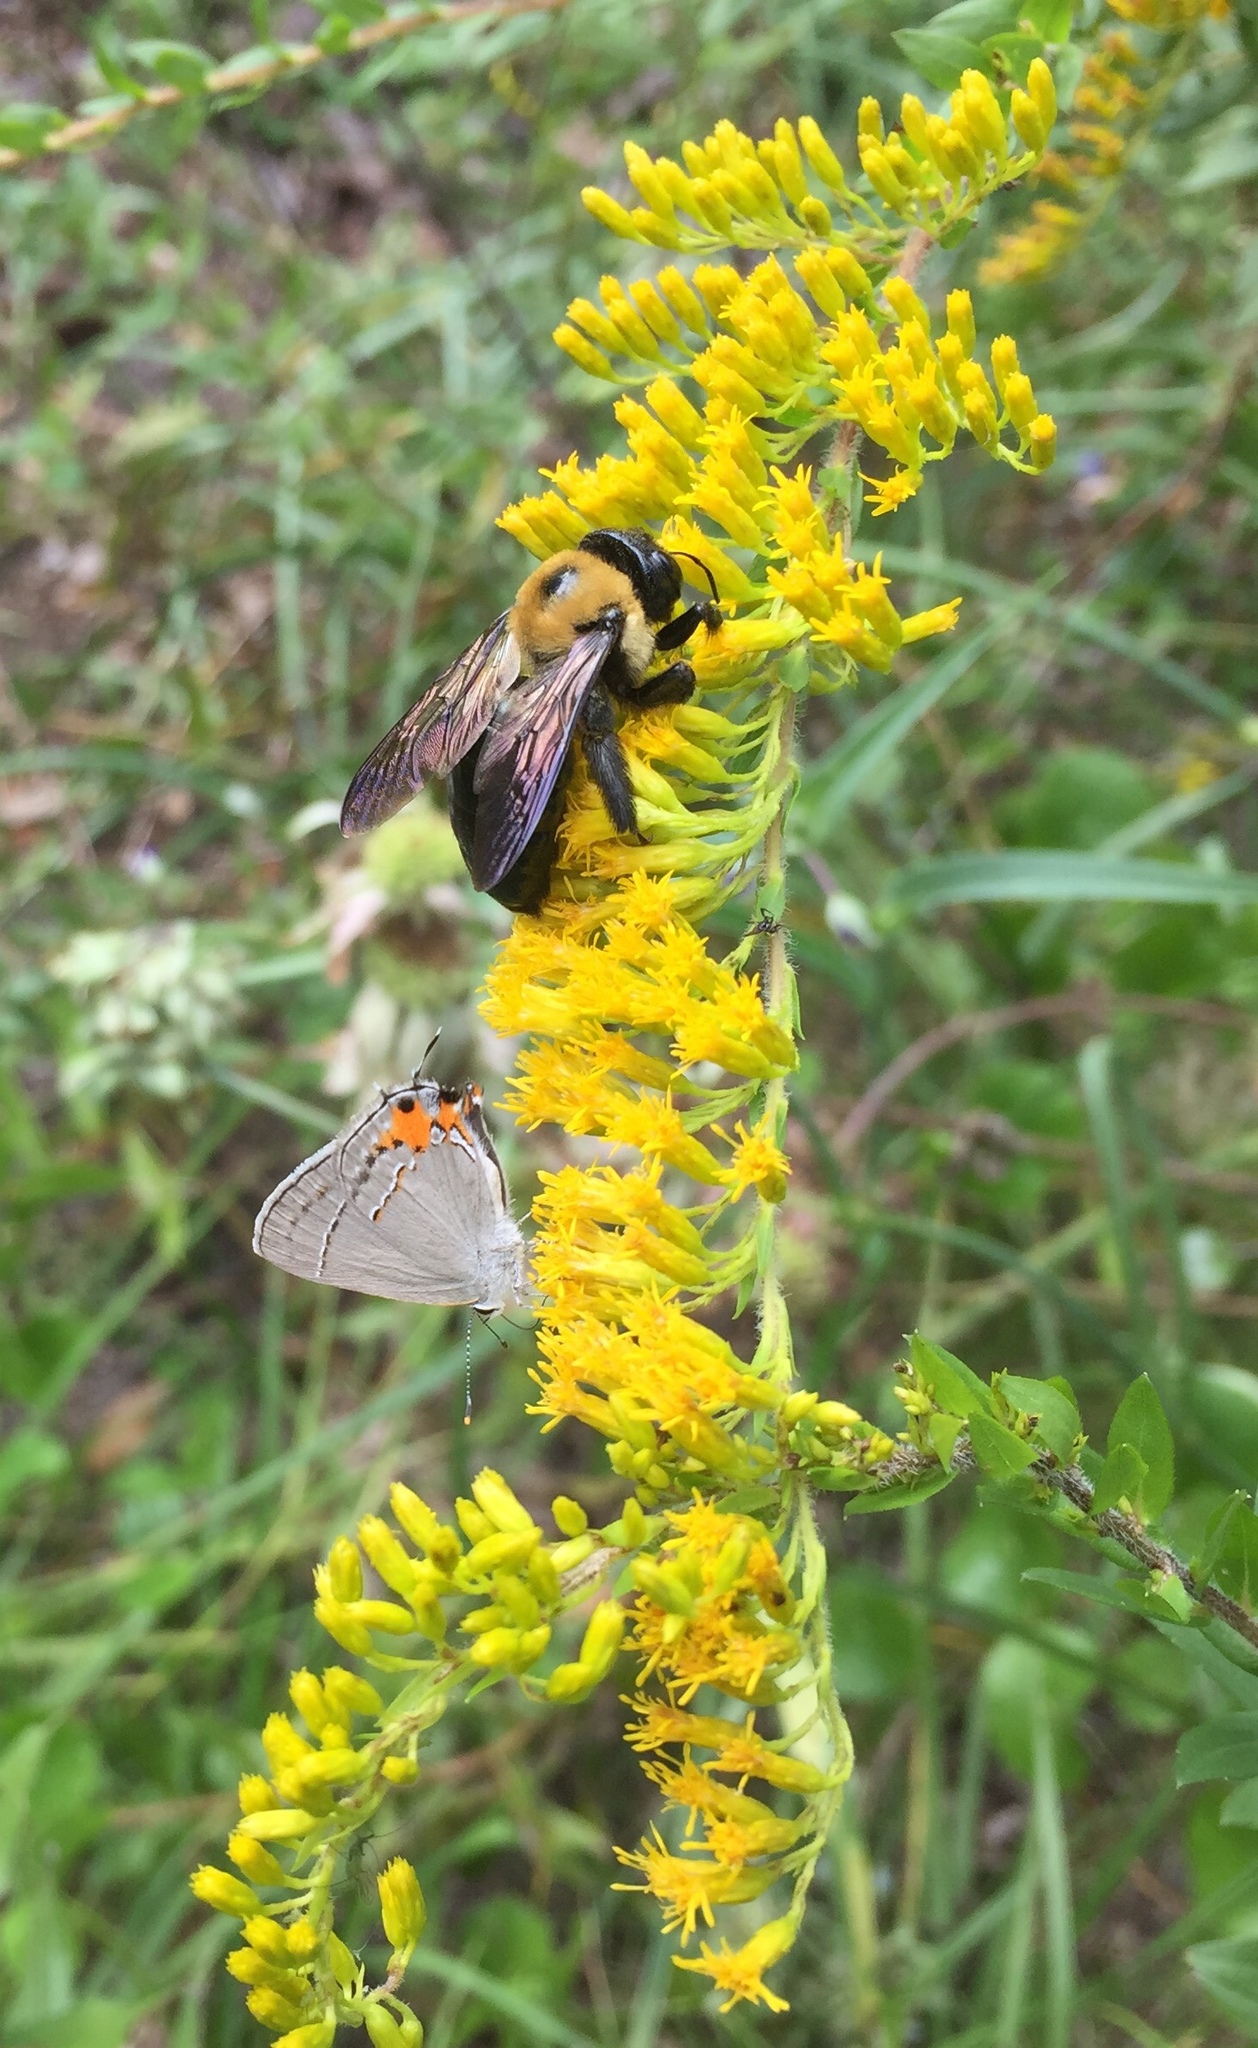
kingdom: Animalia
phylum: Arthropoda
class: Insecta
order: Hymenoptera
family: Apidae
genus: Xylocopa
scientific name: Xylocopa virginica
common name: Carpenter bee
